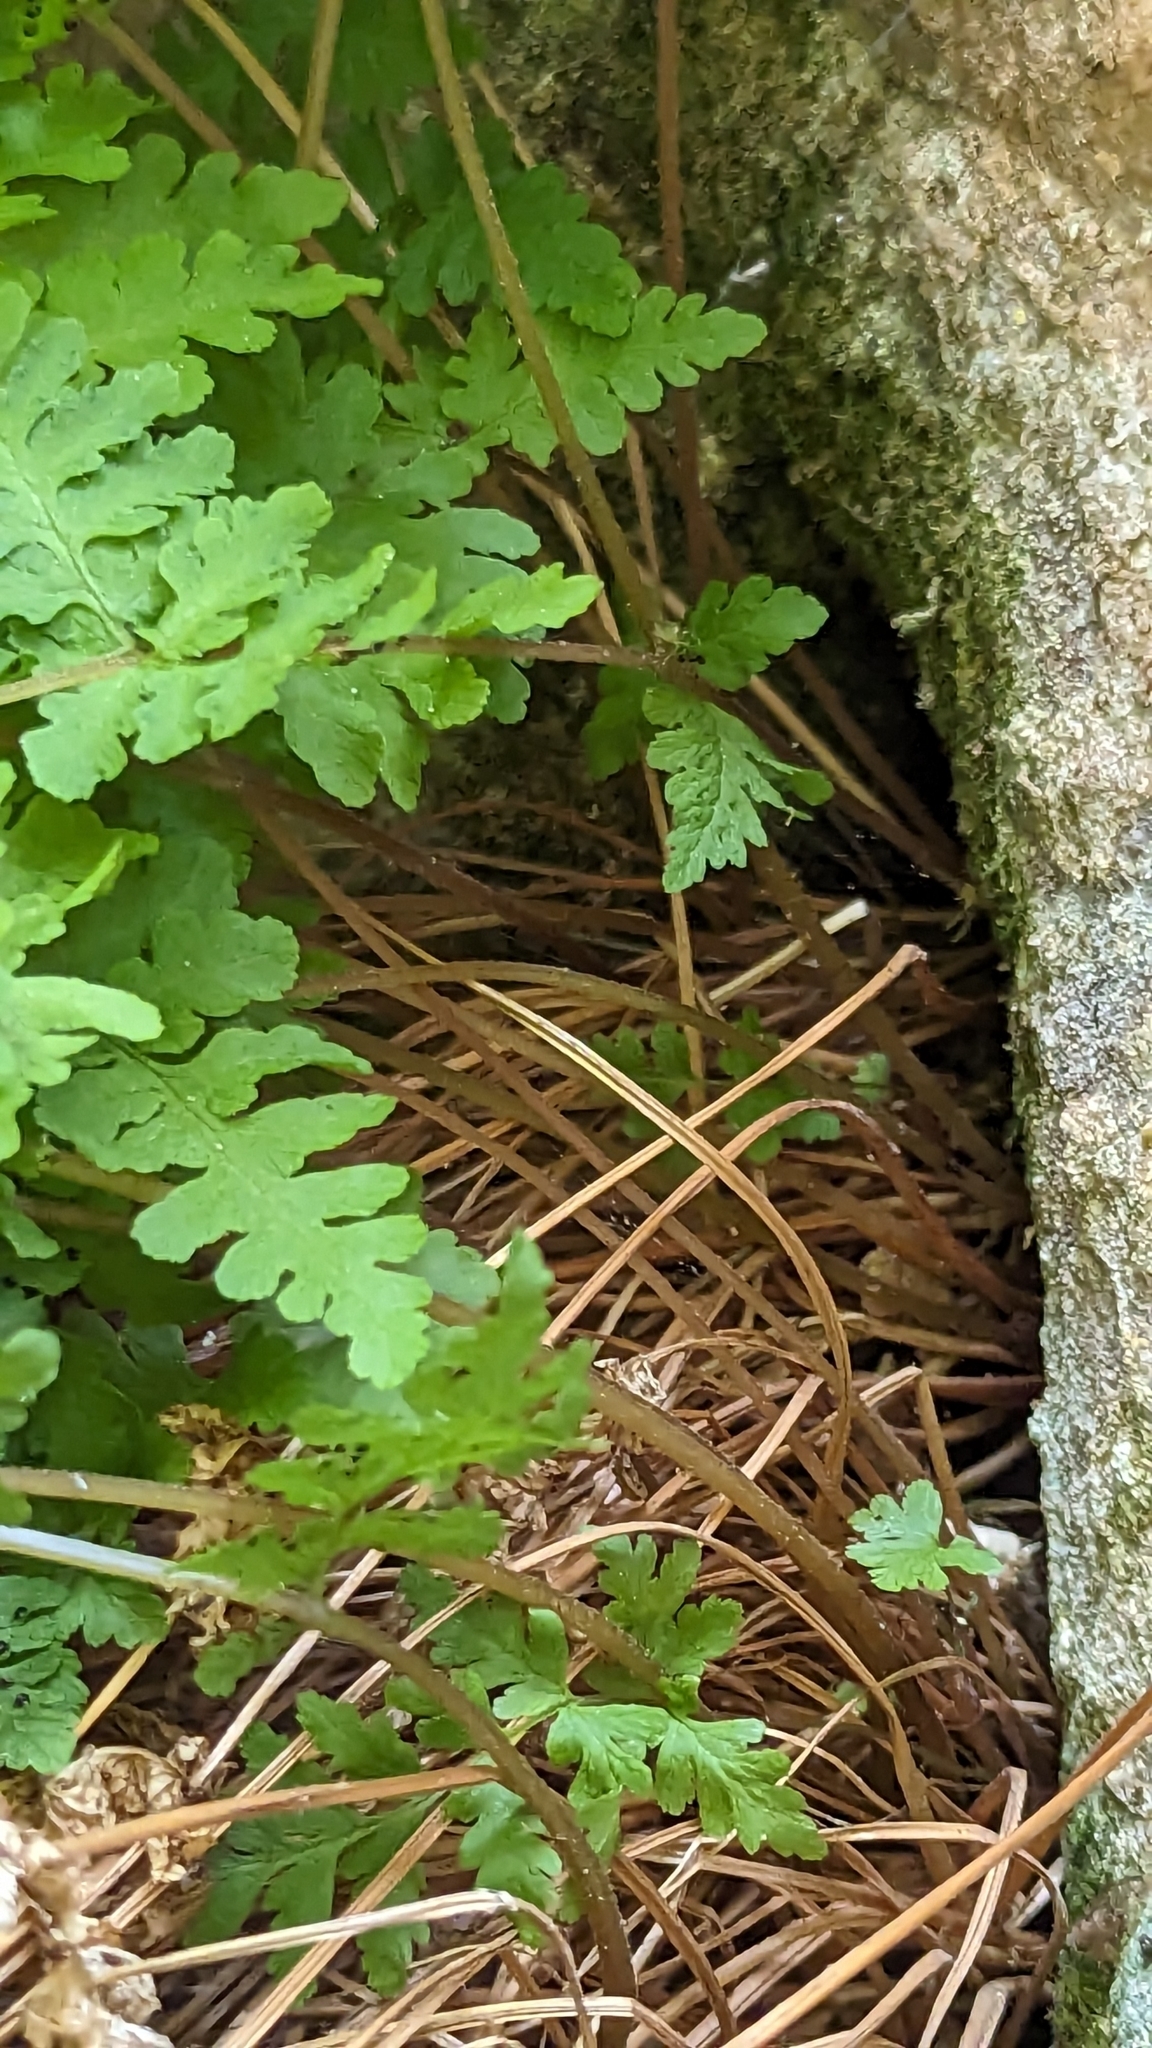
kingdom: Plantae
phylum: Tracheophyta
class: Polypodiopsida
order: Polypodiales
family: Cystopteridaceae
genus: Cystopteris
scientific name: Cystopteris bulbifera
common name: Bulblet bladder fern
